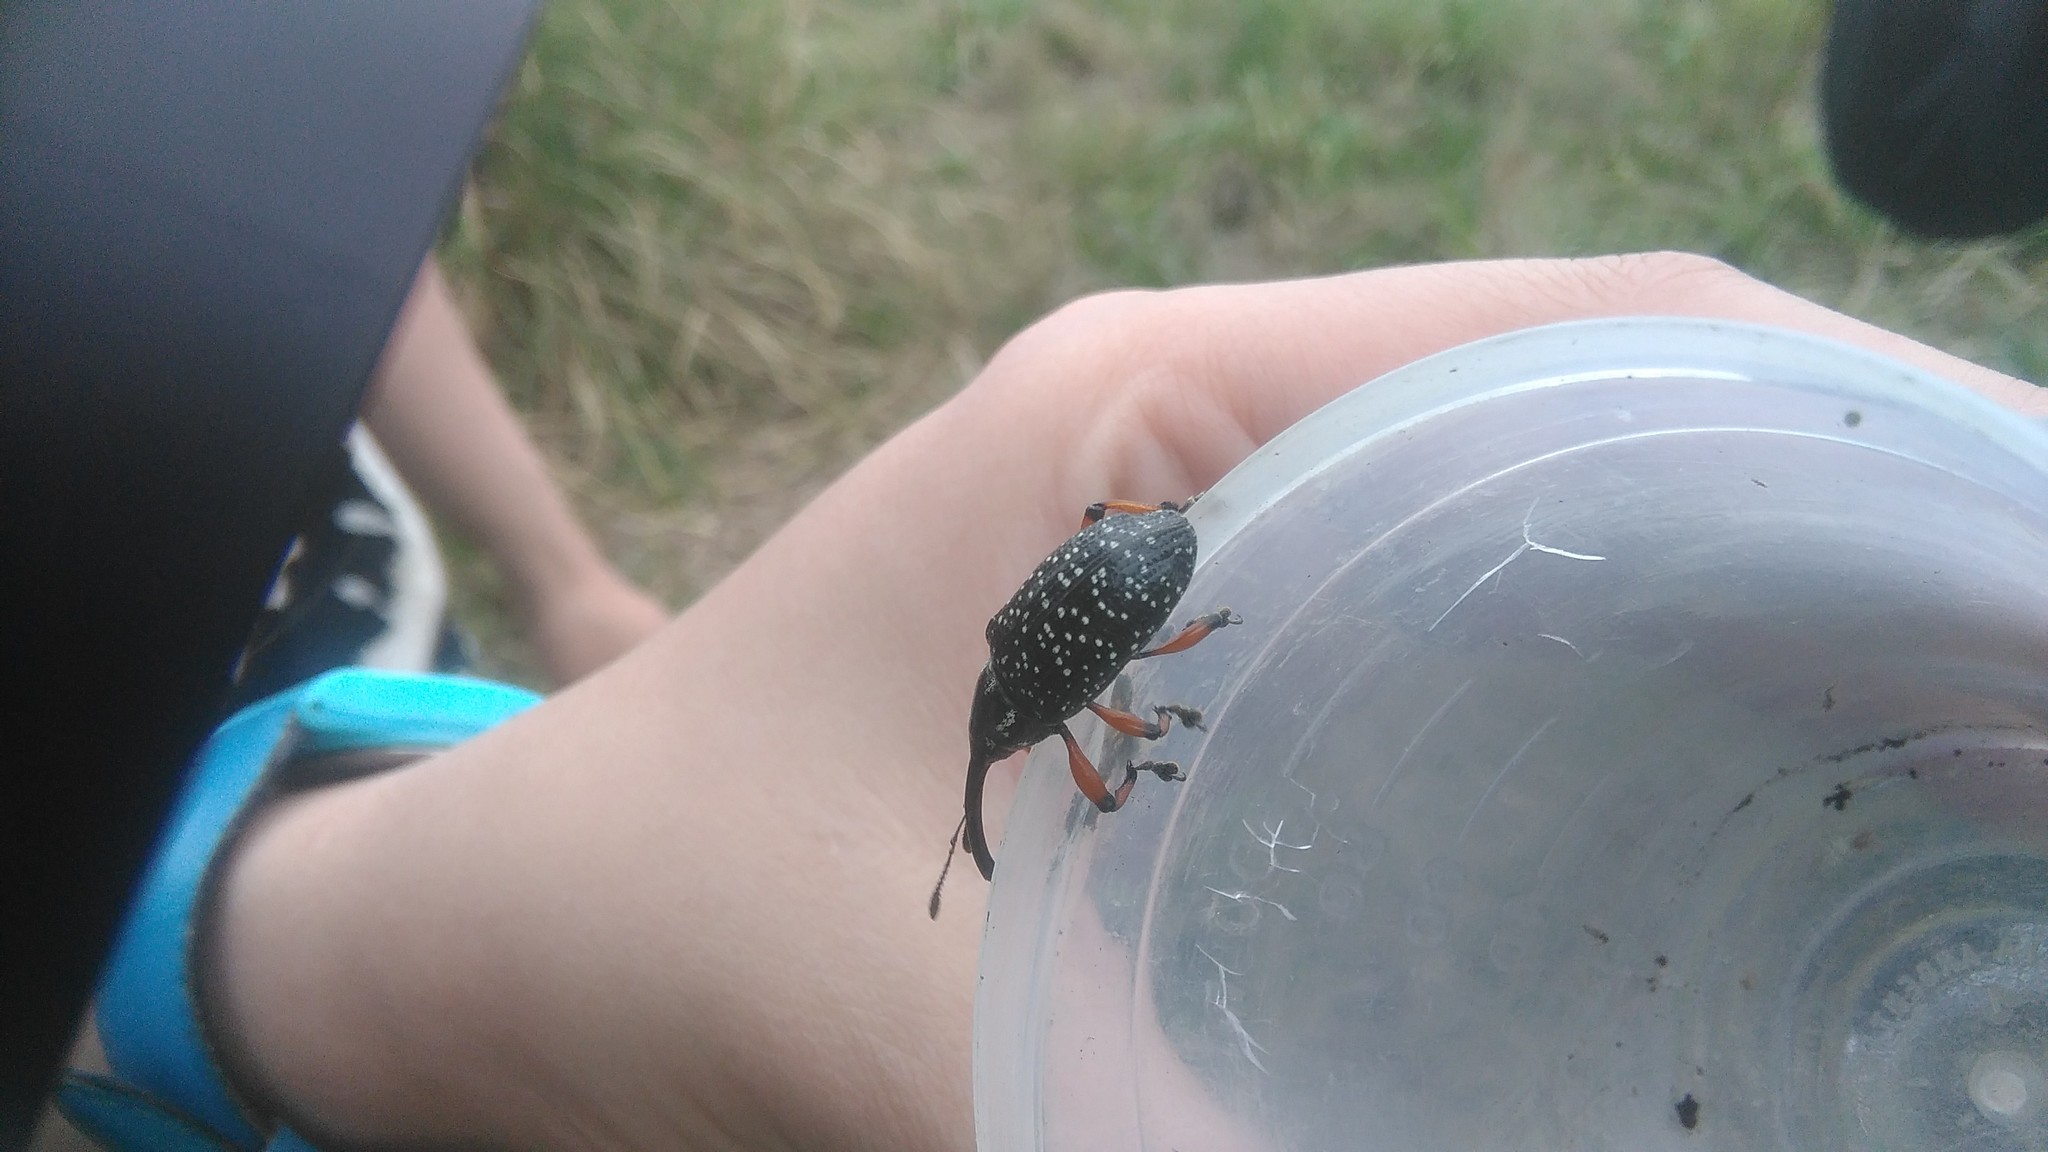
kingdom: Animalia
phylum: Arthropoda
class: Insecta
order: Coleoptera
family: Curculionidae
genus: Heilipodus
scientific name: Heilipodus erythropus
